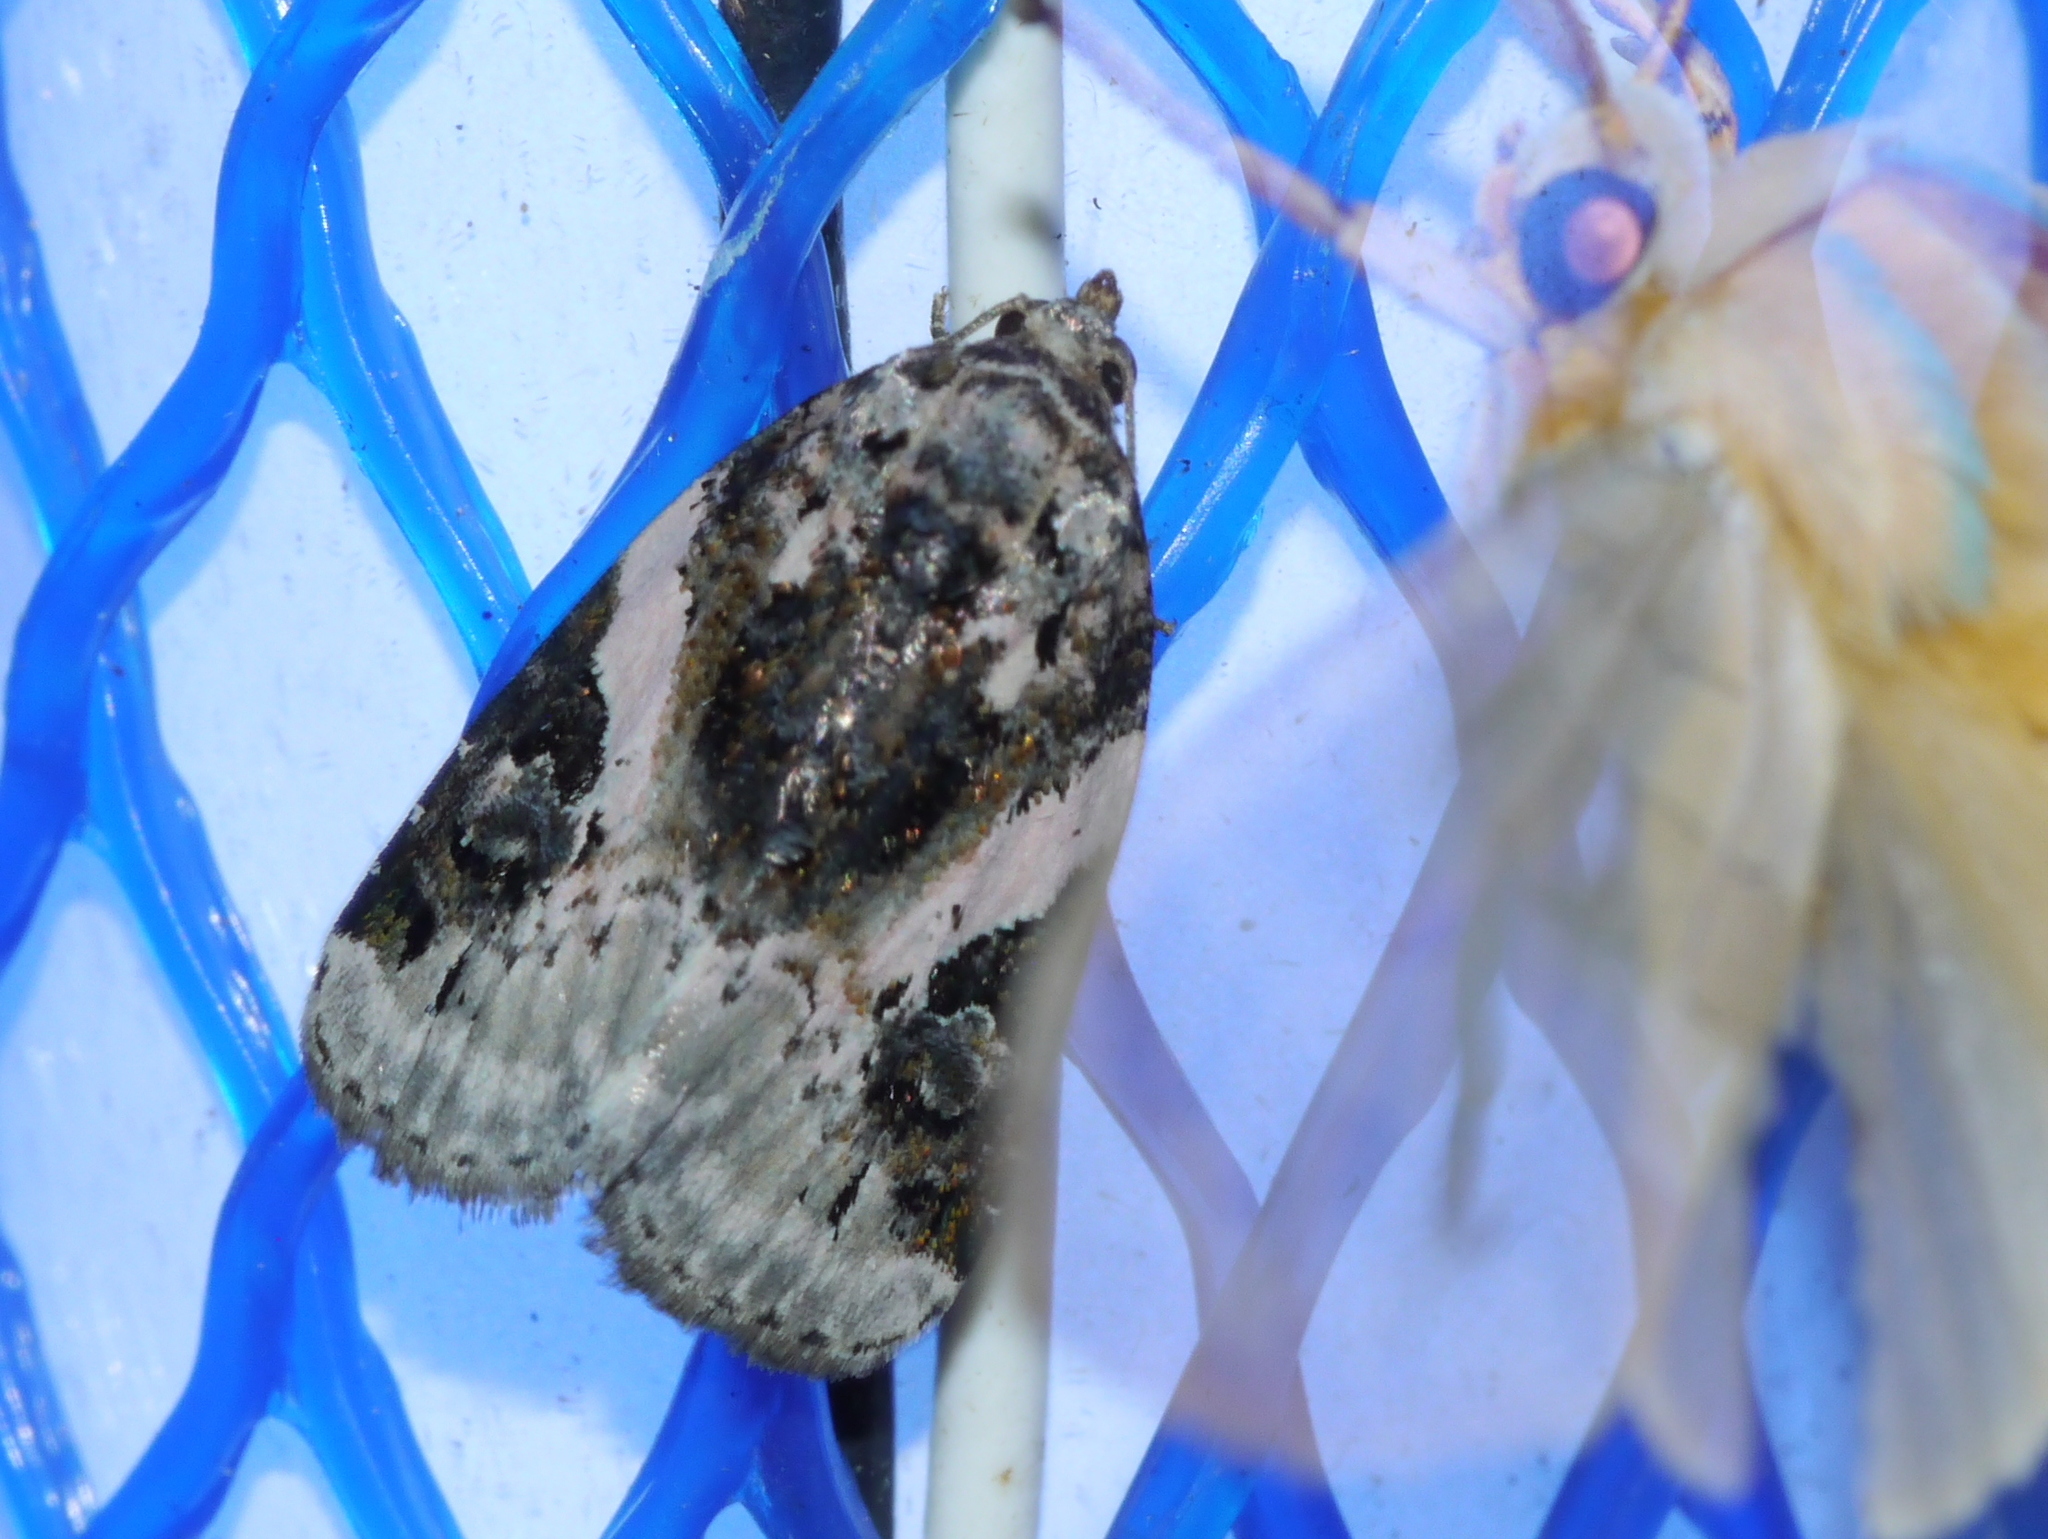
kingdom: Animalia
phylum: Arthropoda
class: Insecta
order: Lepidoptera
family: Noctuidae
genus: Pseudeustrotia
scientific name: Pseudeustrotia carneola
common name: Pink-barred lithacodia moth
